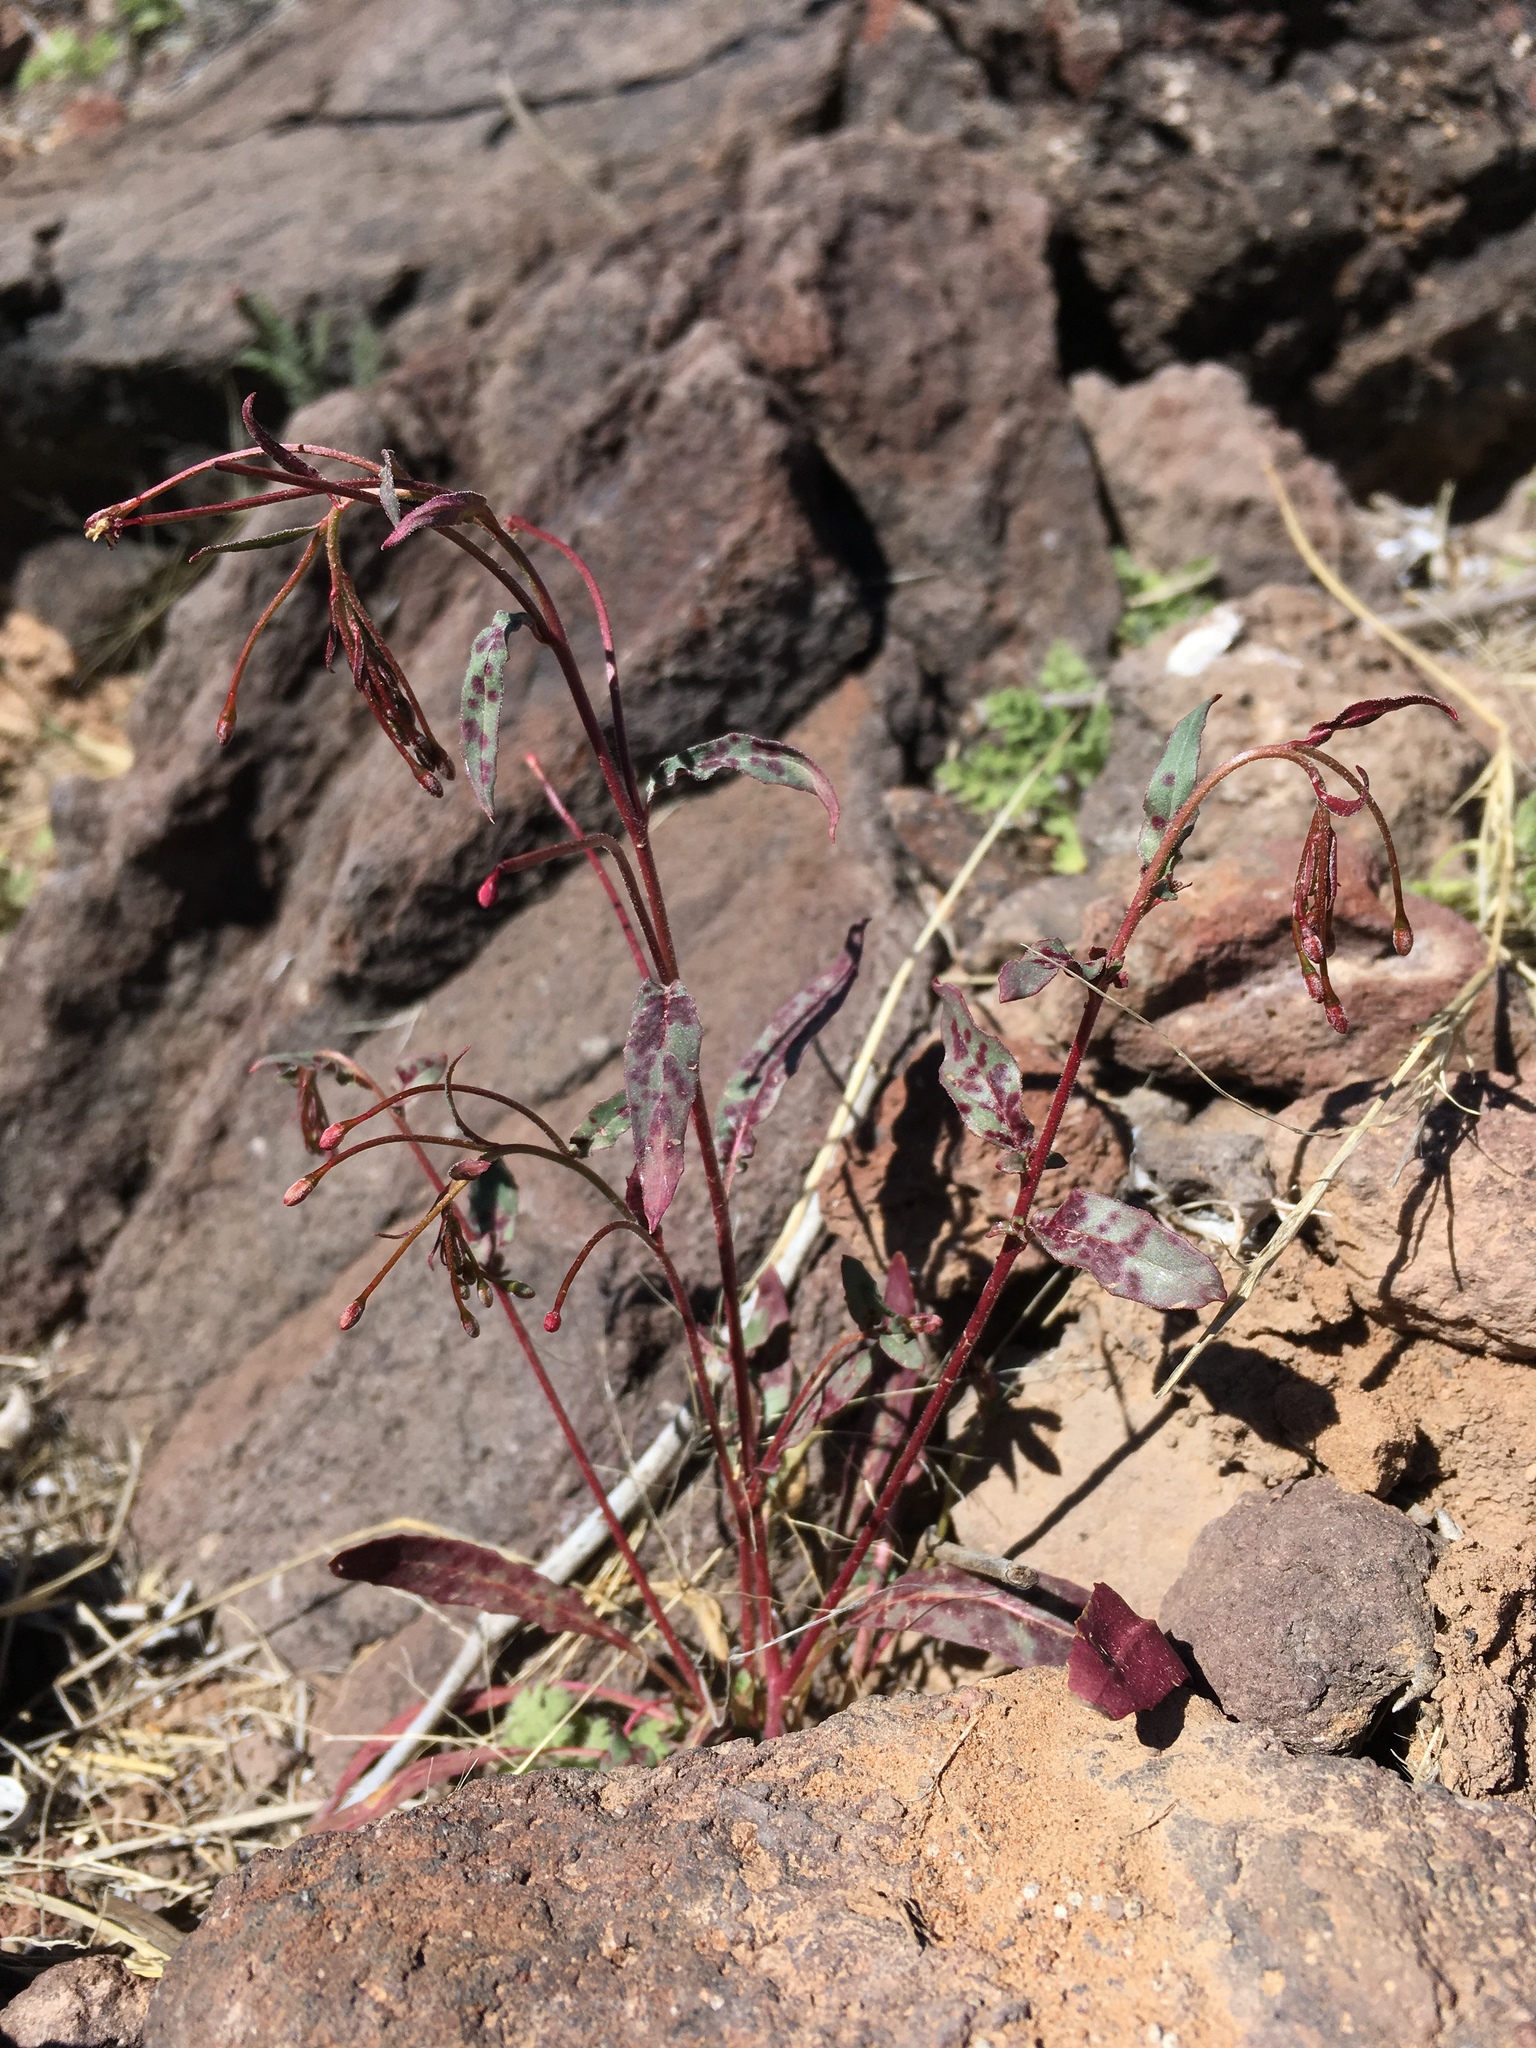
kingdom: Plantae
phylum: Tracheophyta
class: Magnoliopsida
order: Myrtales
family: Onagraceae
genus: Eremothera
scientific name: Eremothera chamaenerioides
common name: Longcapsule suncup
